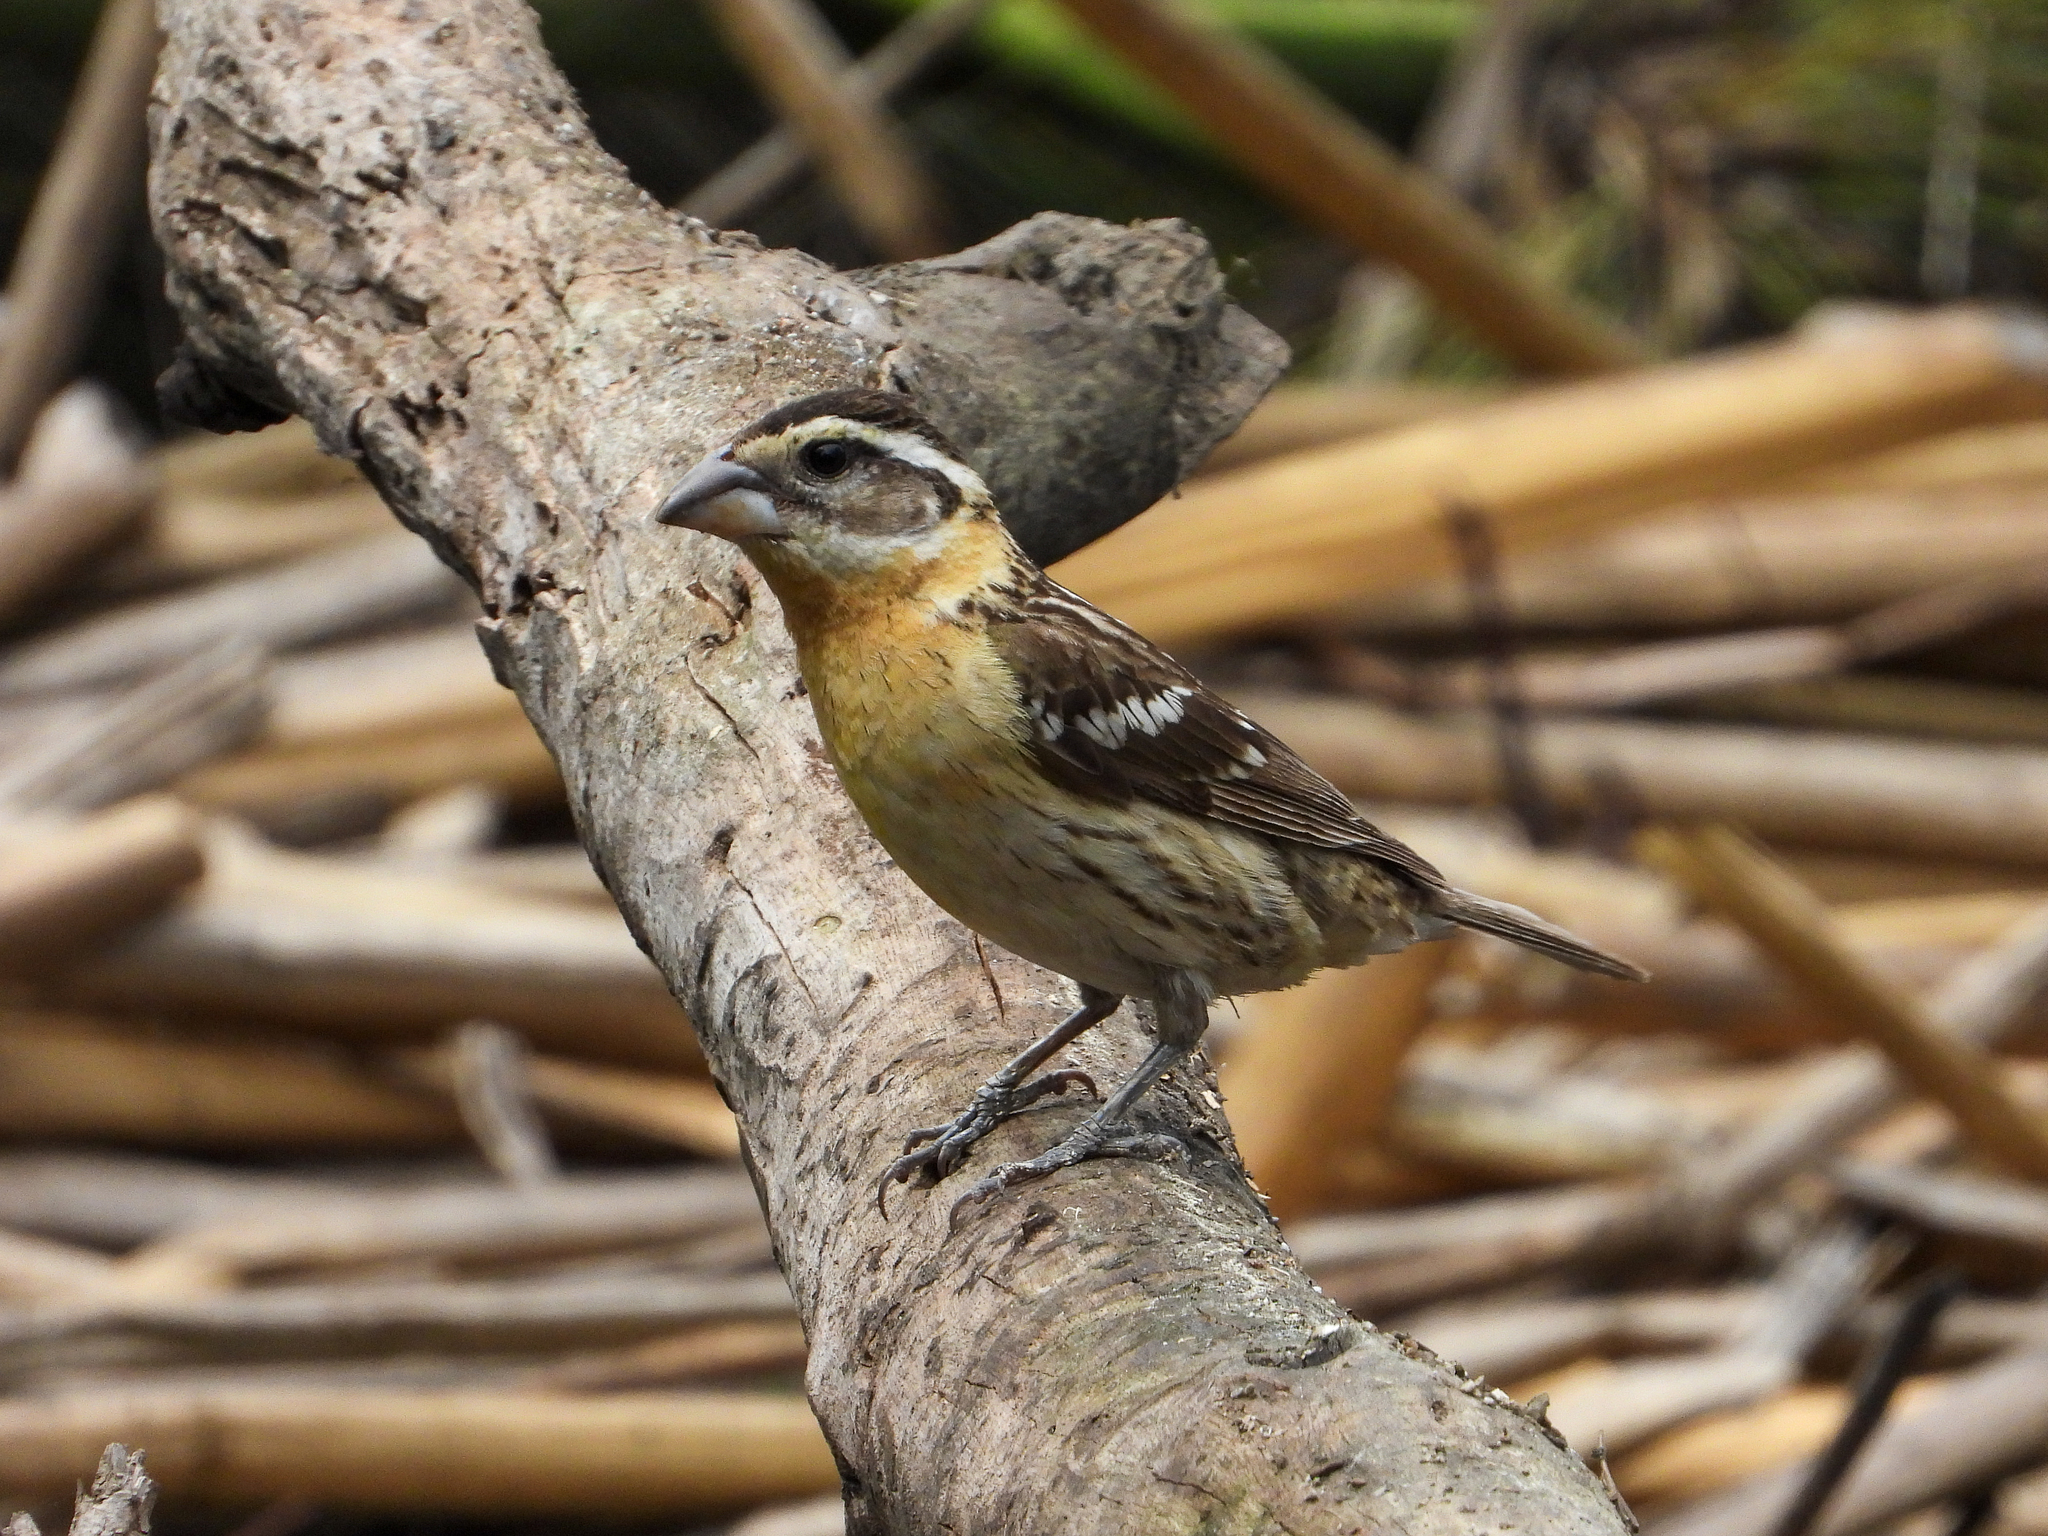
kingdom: Animalia
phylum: Chordata
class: Aves
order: Passeriformes
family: Cardinalidae
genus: Pheucticus
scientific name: Pheucticus melanocephalus
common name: Black-headed grosbeak
